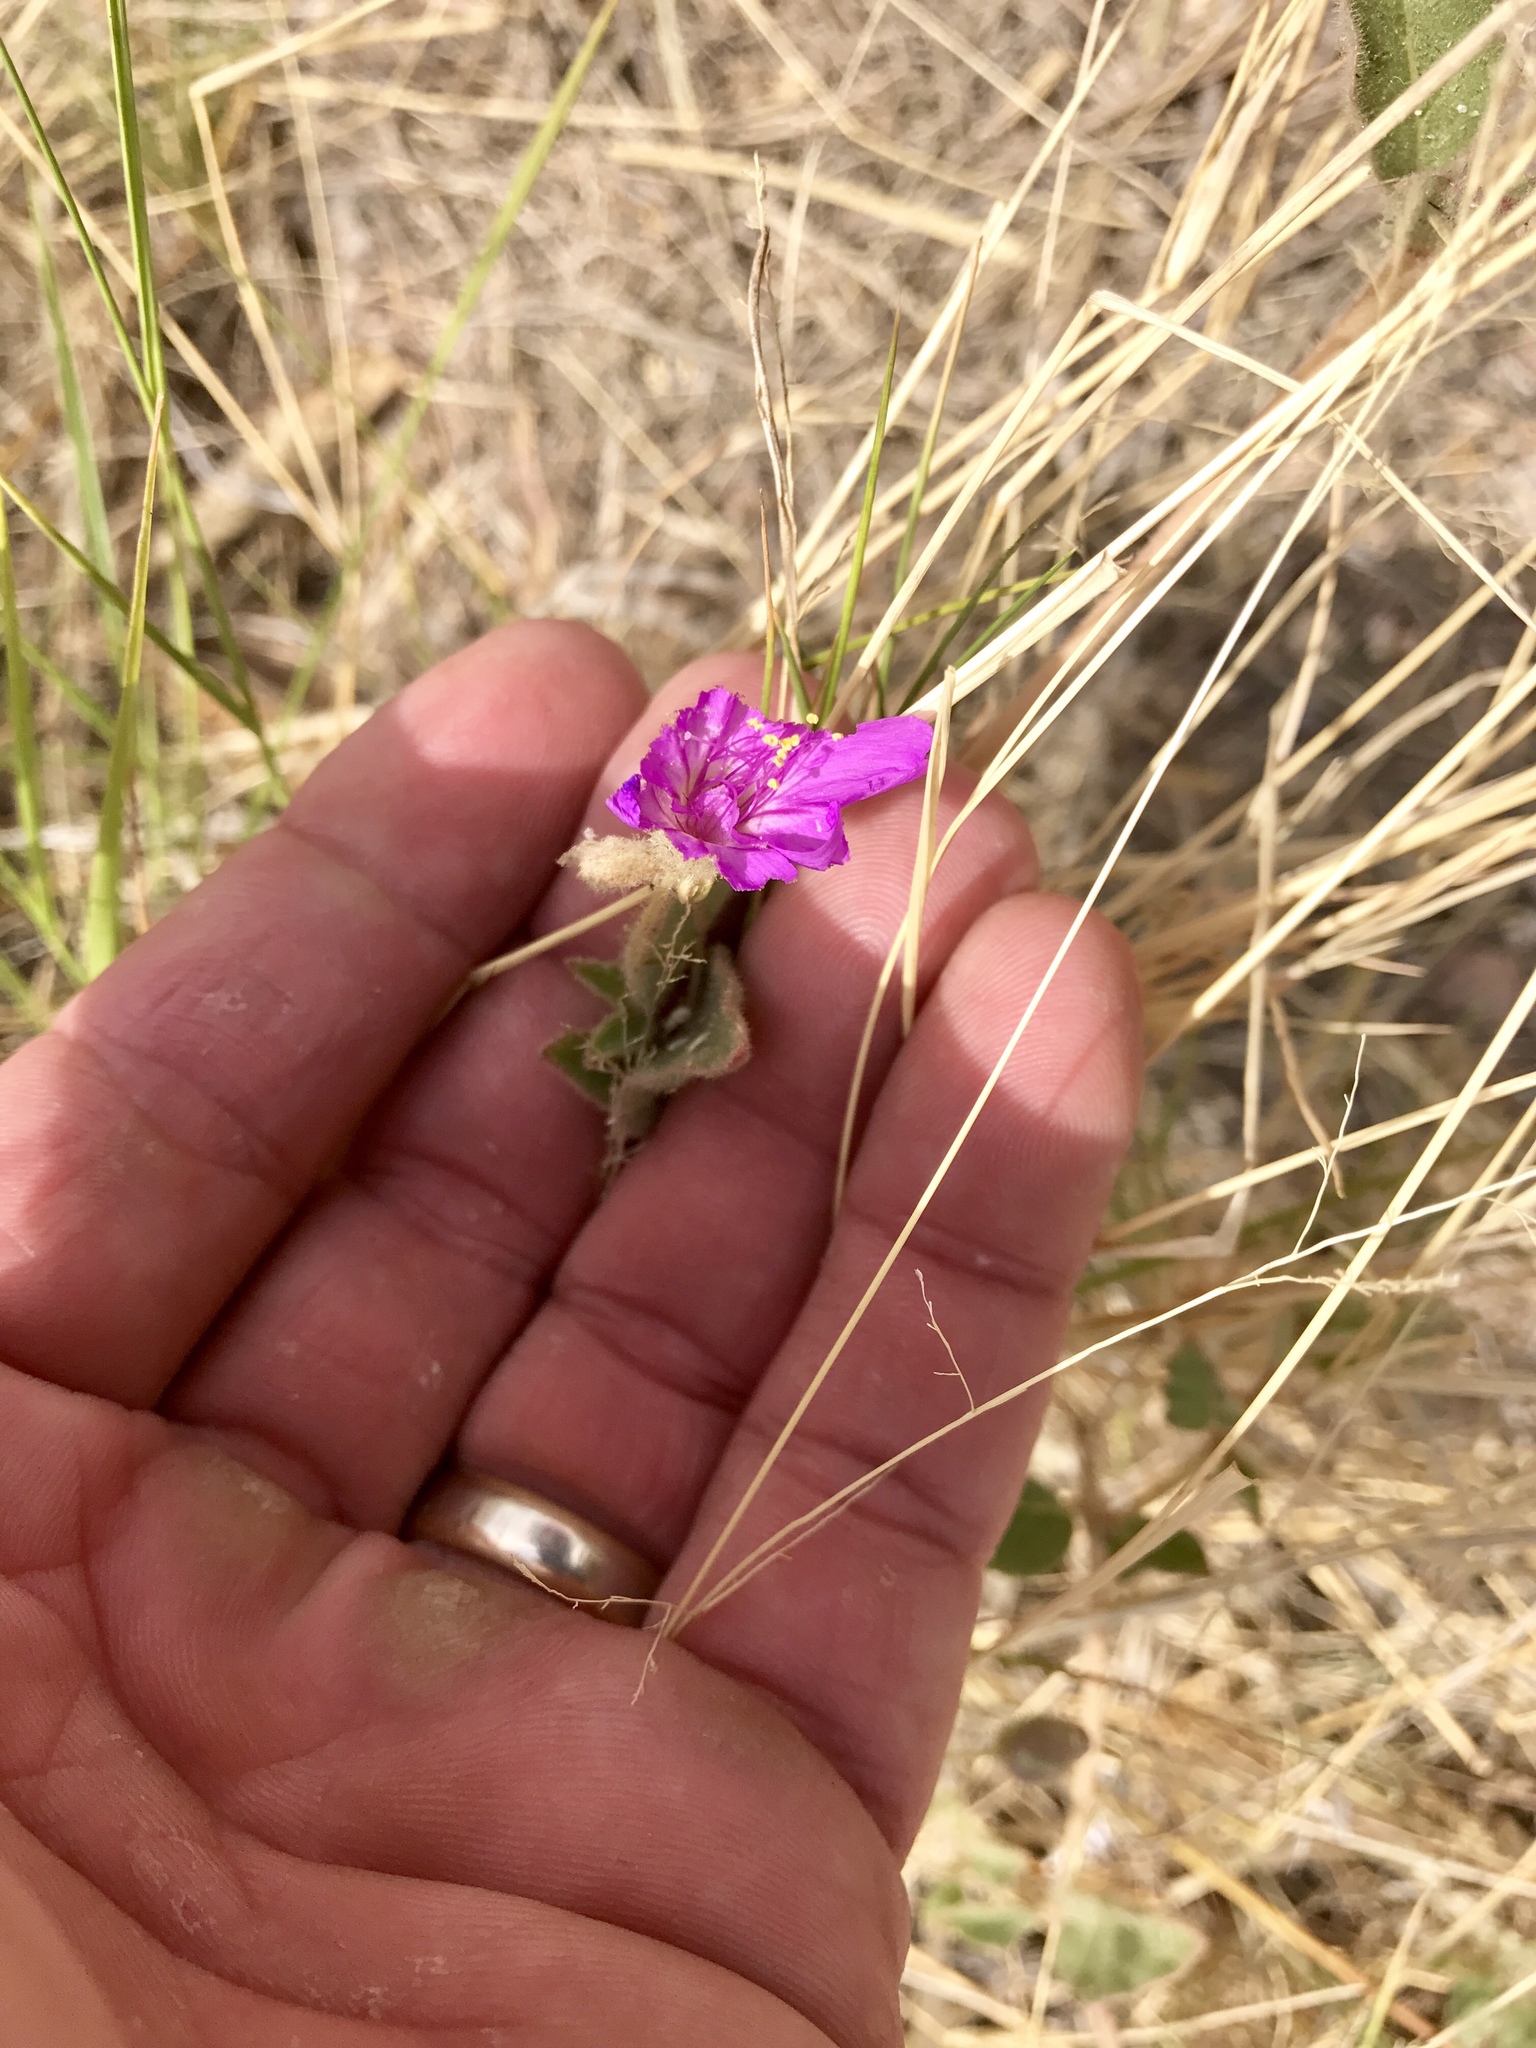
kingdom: Plantae
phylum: Tracheophyta
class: Magnoliopsida
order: Caryophyllales
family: Nyctaginaceae
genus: Allionia
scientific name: Allionia incarnata
